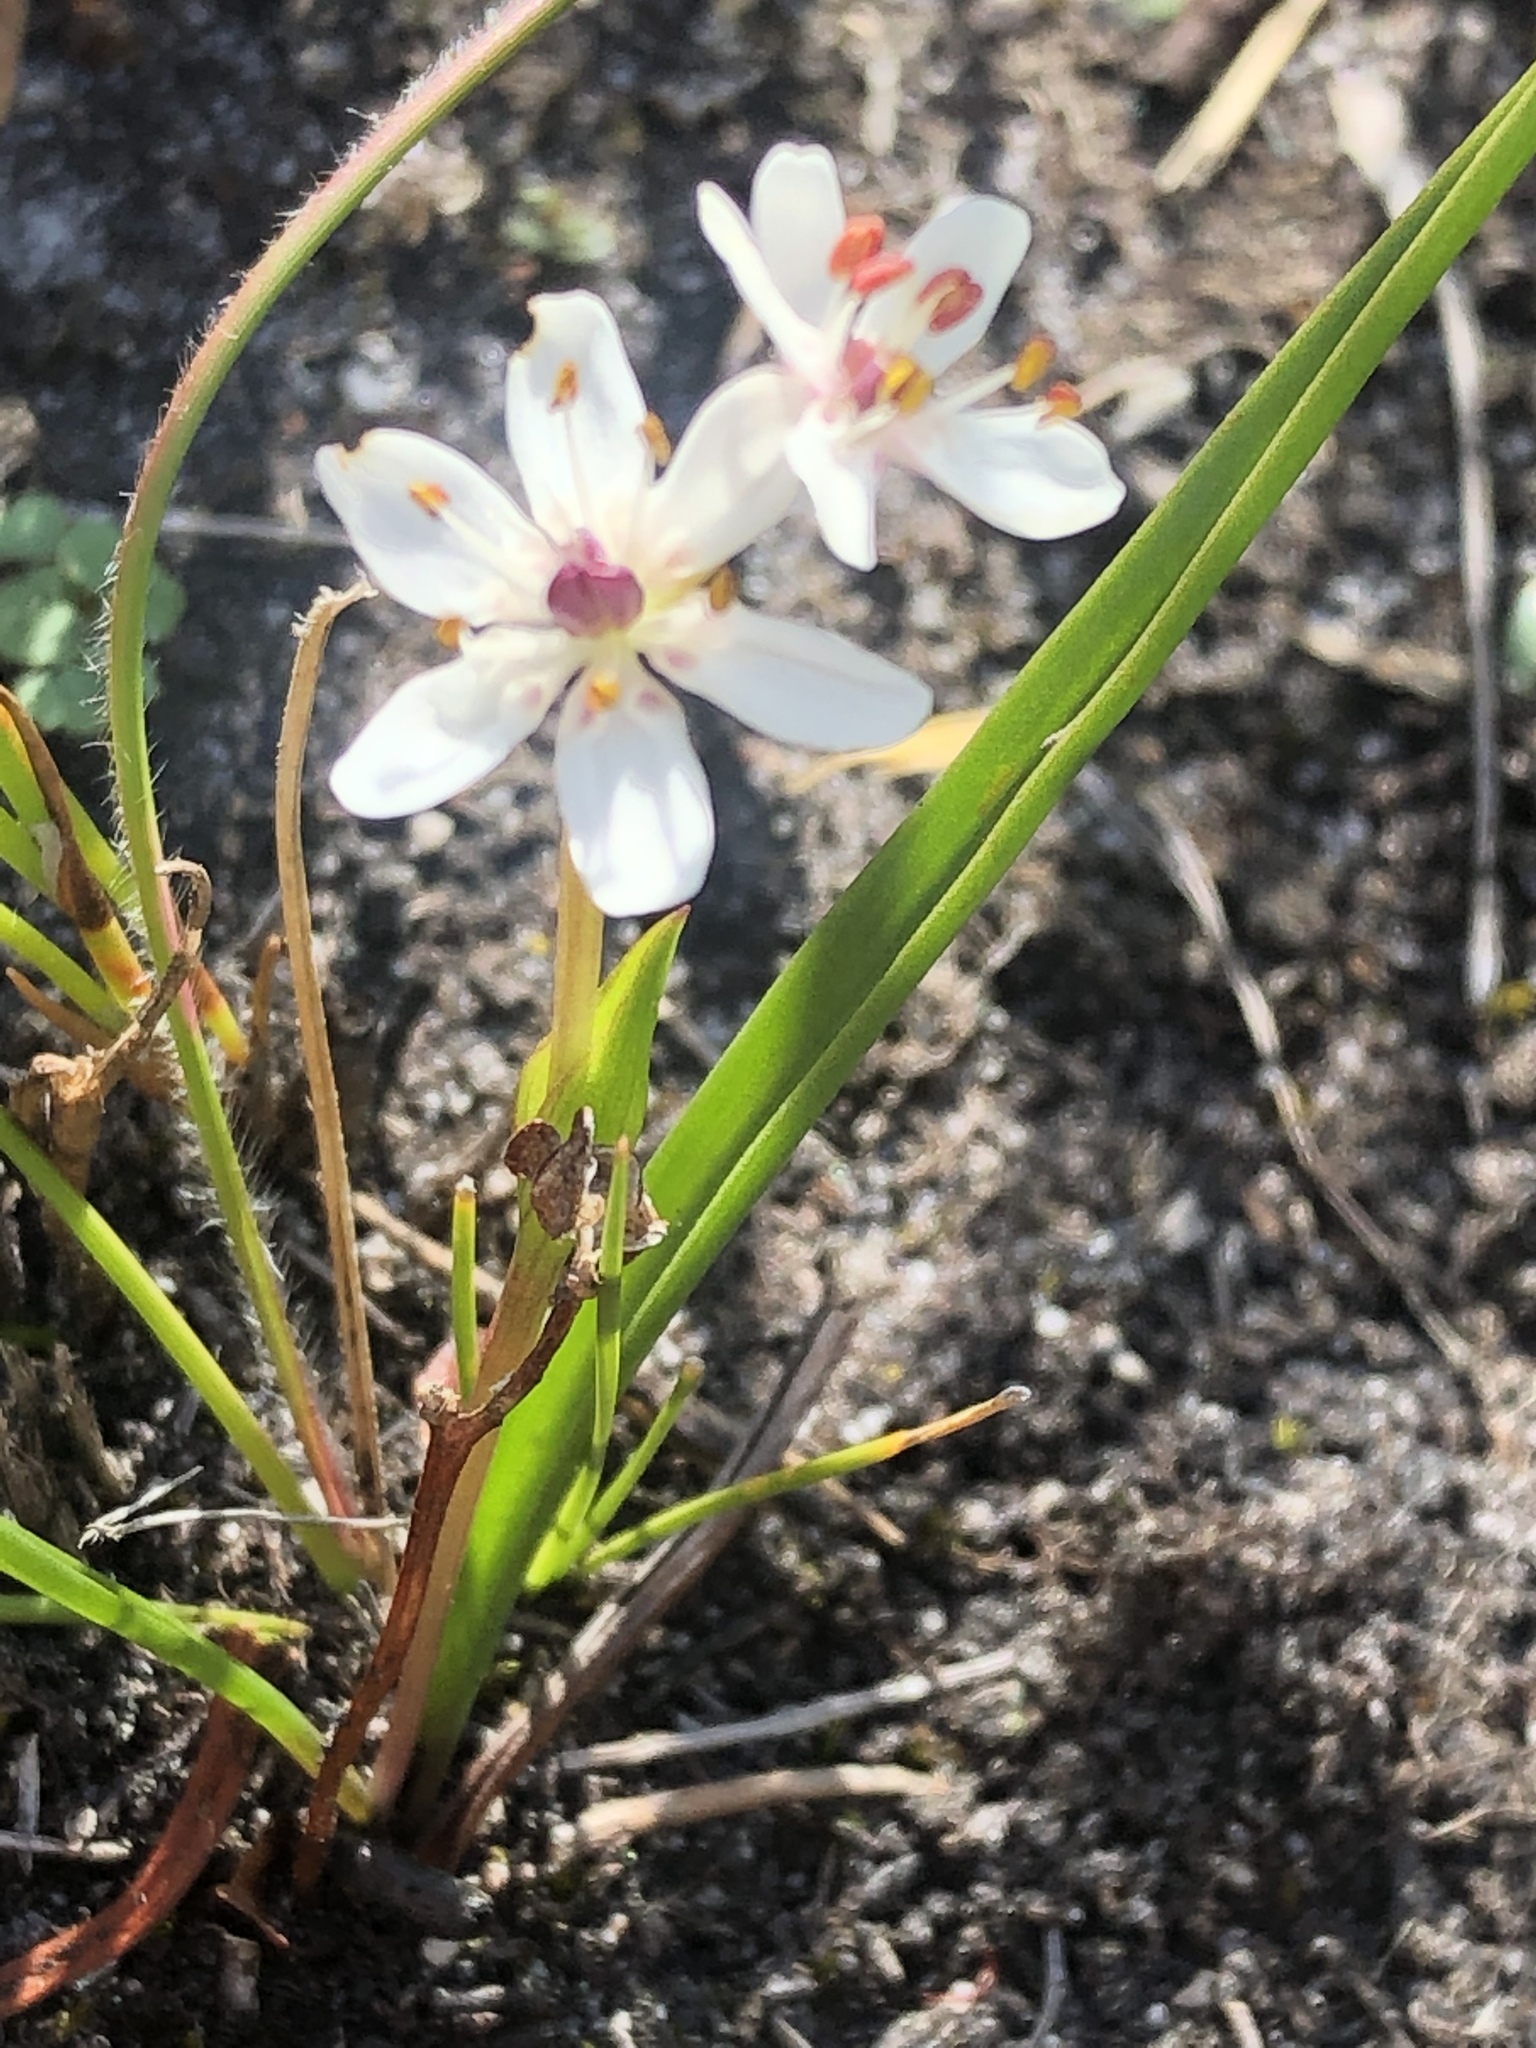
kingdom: Plantae
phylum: Tracheophyta
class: Liliopsida
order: Liliales
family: Colchicaceae
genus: Wurmbea
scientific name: Wurmbea punctata
